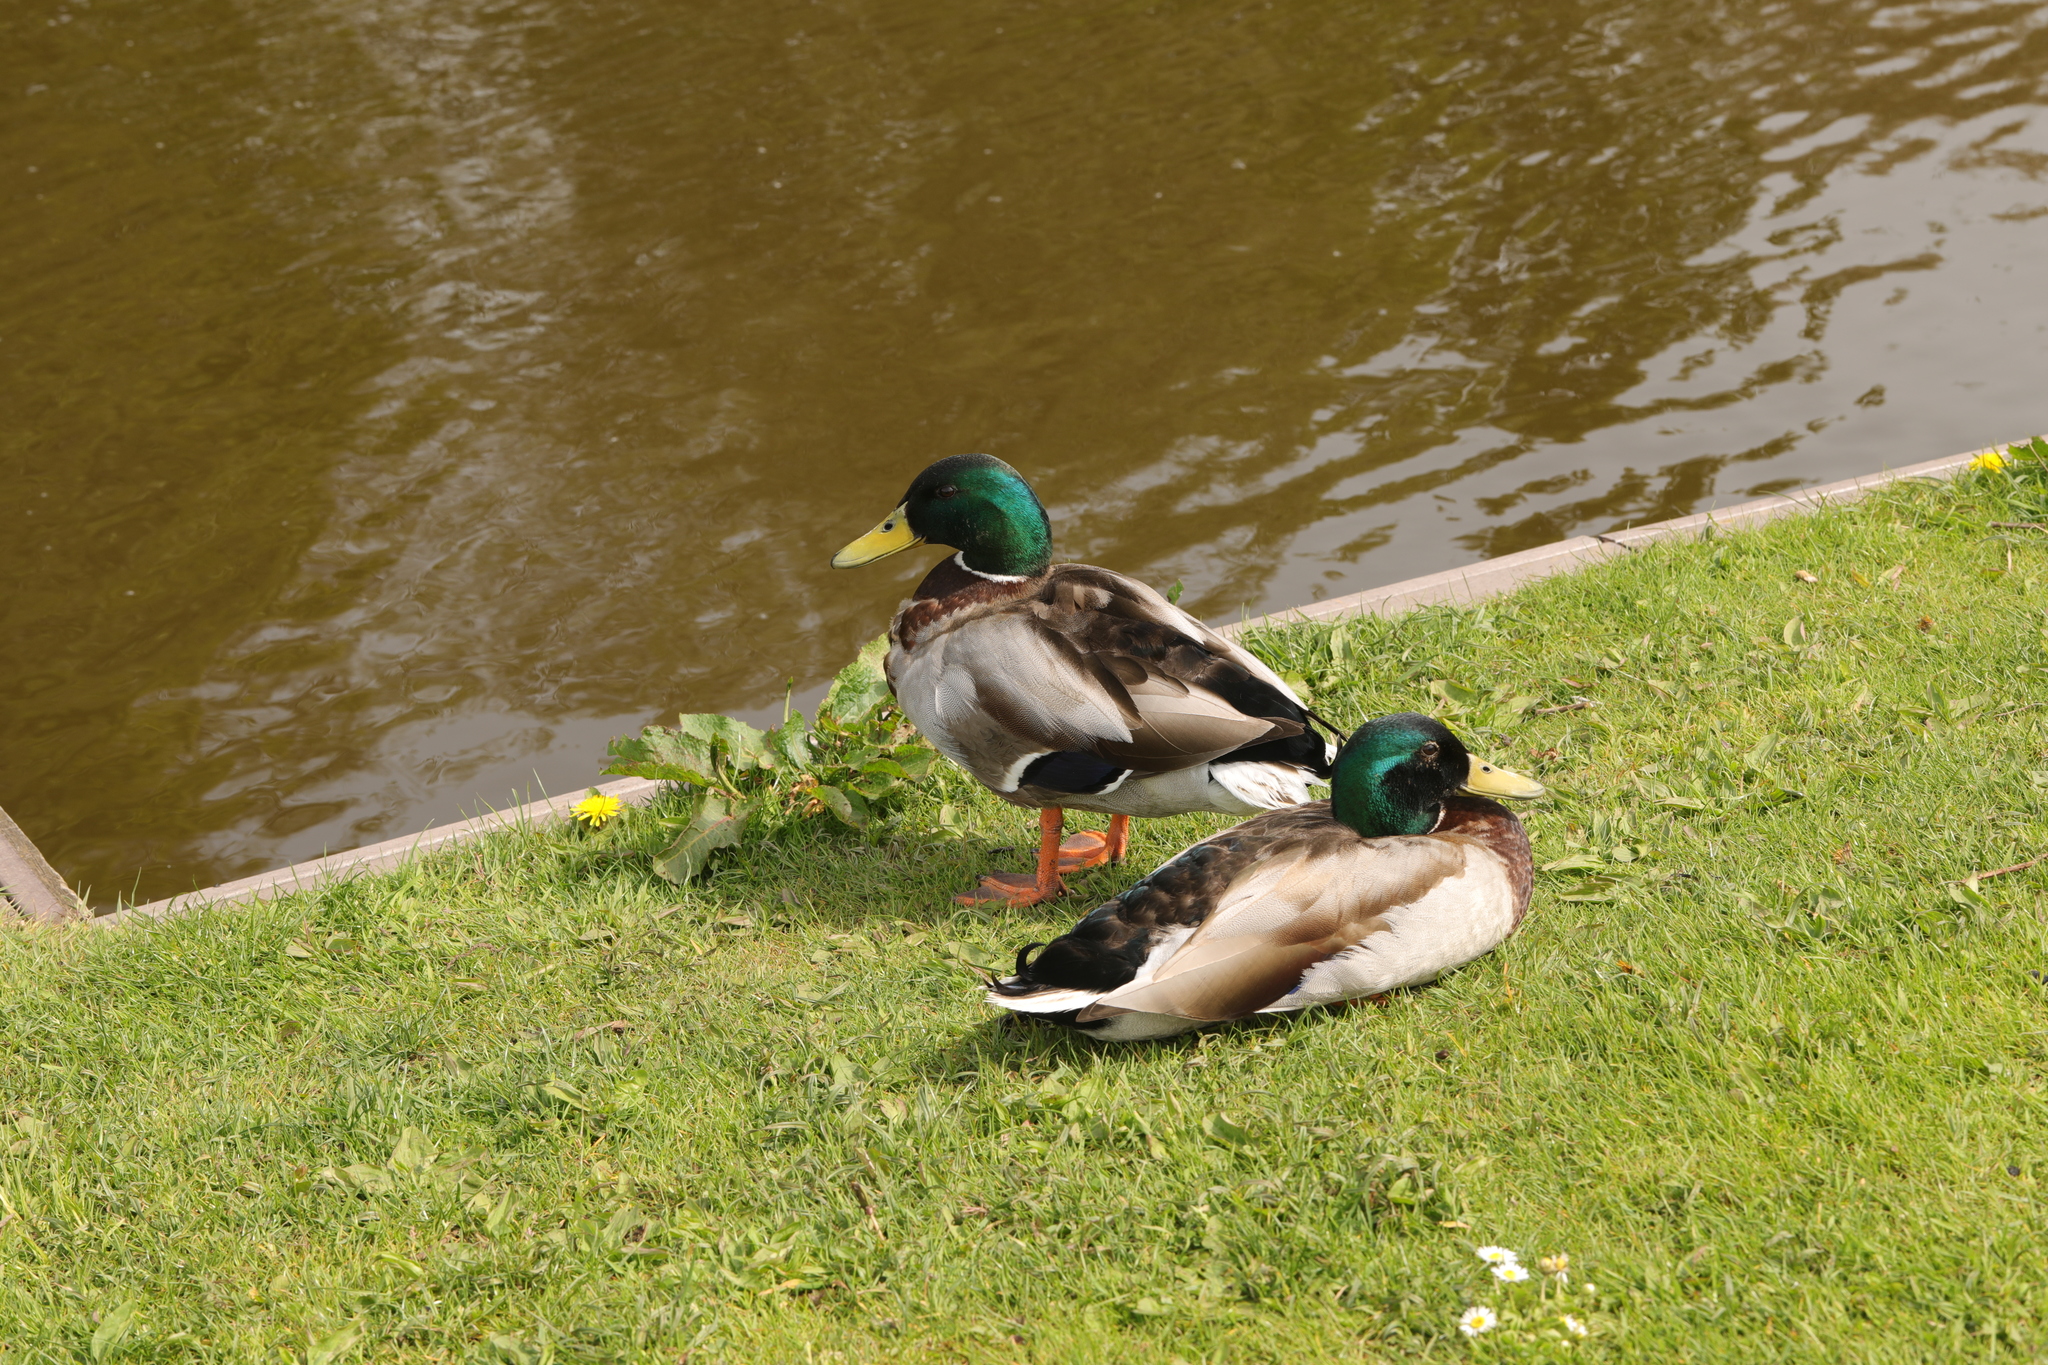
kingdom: Animalia
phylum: Chordata
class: Aves
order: Anseriformes
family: Anatidae
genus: Anas
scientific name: Anas platyrhynchos
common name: Mallard
